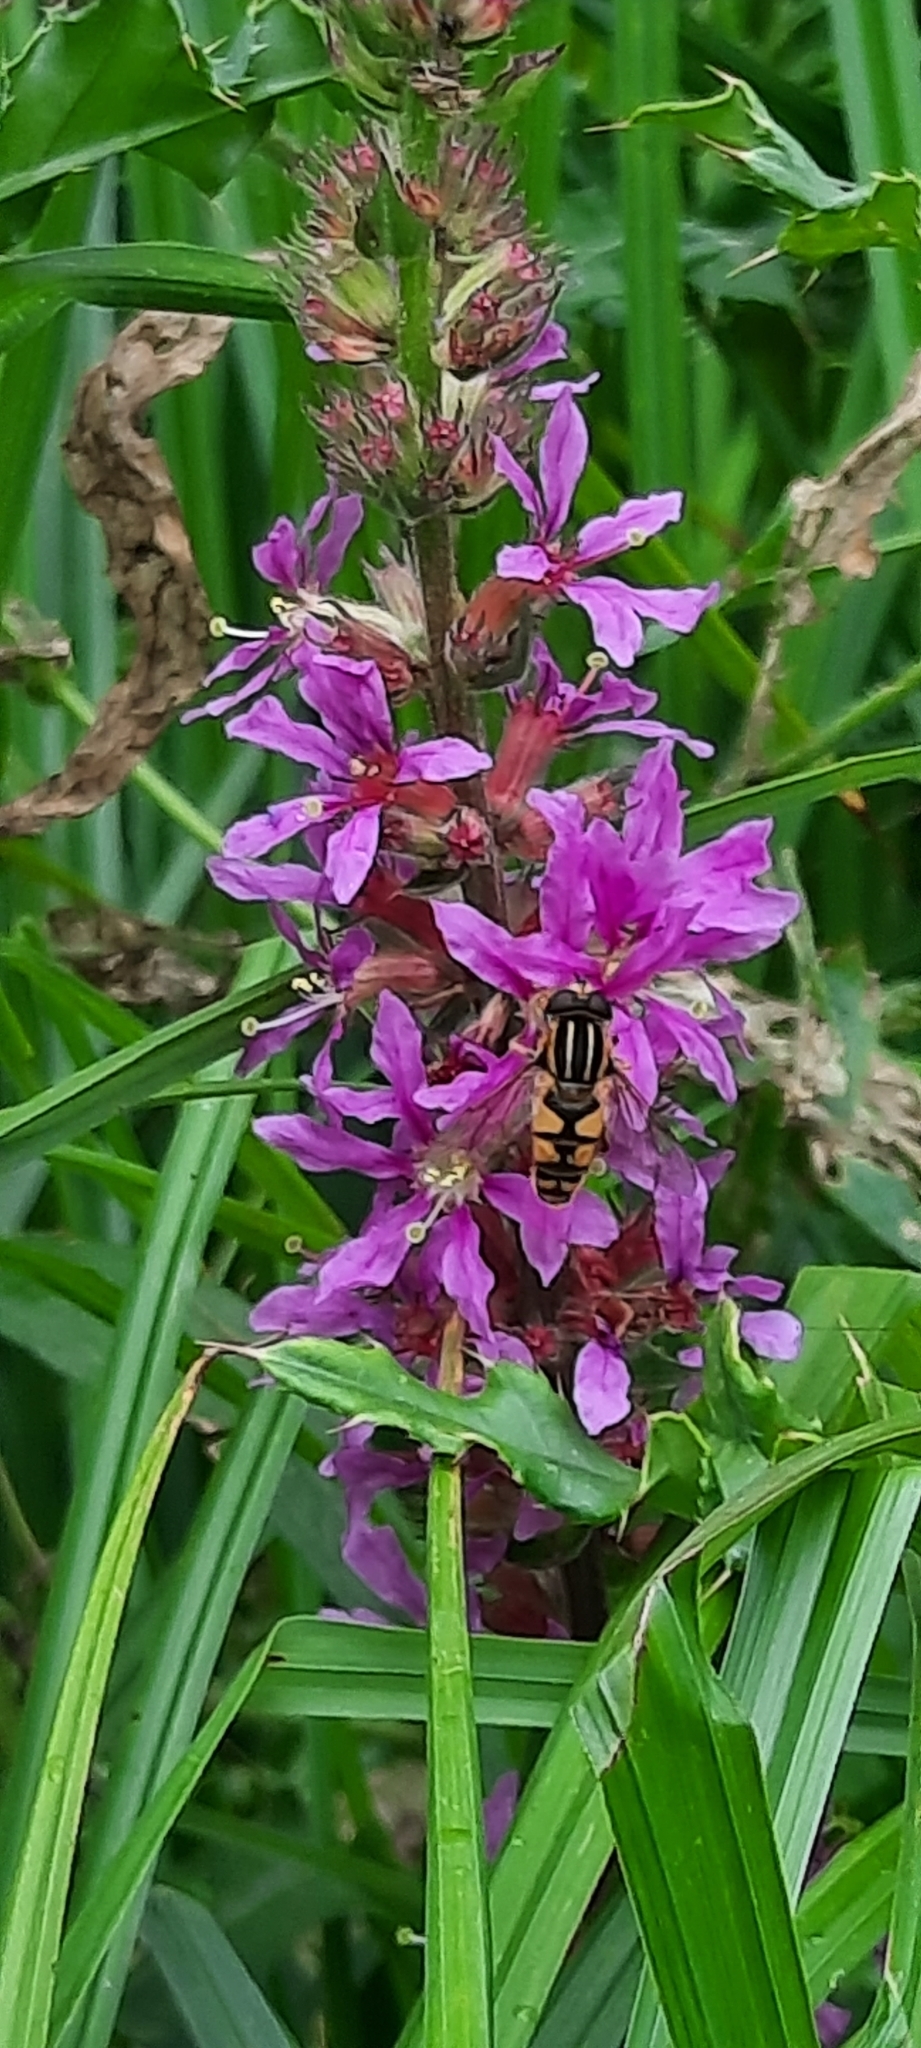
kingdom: Animalia
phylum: Arthropoda
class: Insecta
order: Diptera
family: Syrphidae
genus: Helophilus
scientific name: Helophilus pendulus
